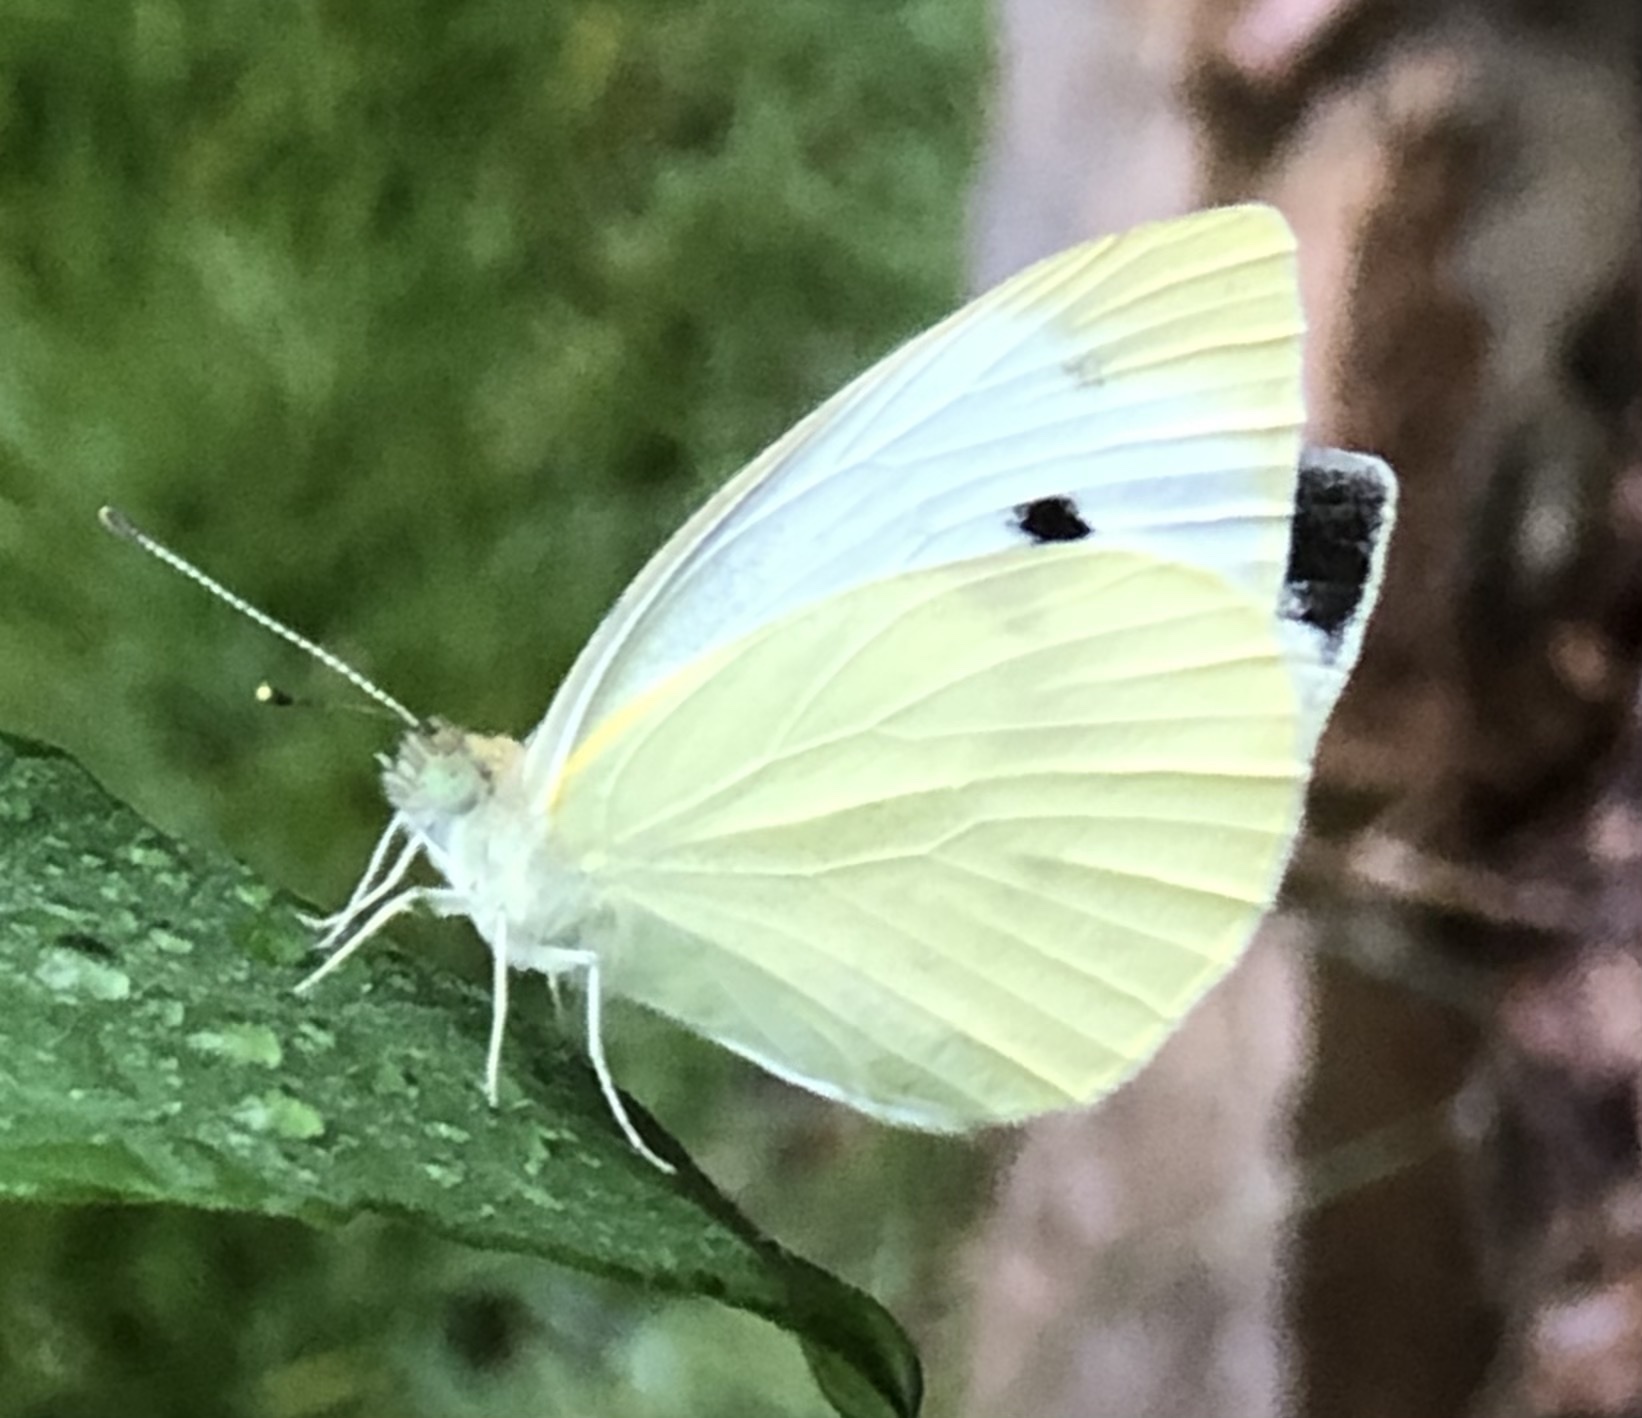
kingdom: Animalia
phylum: Arthropoda
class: Insecta
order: Lepidoptera
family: Pieridae
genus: Pieris
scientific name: Pieris rapae
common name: Small white
